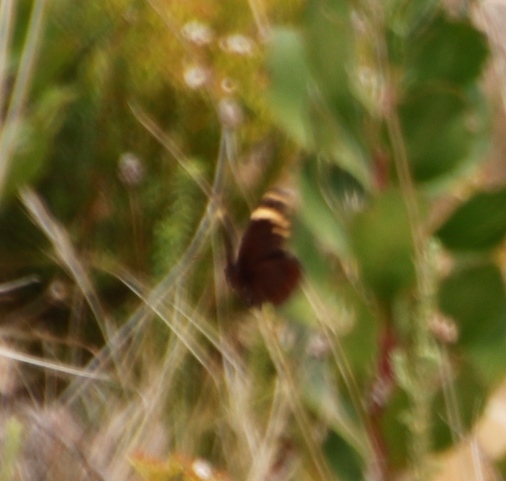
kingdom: Animalia
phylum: Arthropoda
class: Insecta
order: Lepidoptera
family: Nymphalidae
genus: Dira
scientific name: Dira clytus
